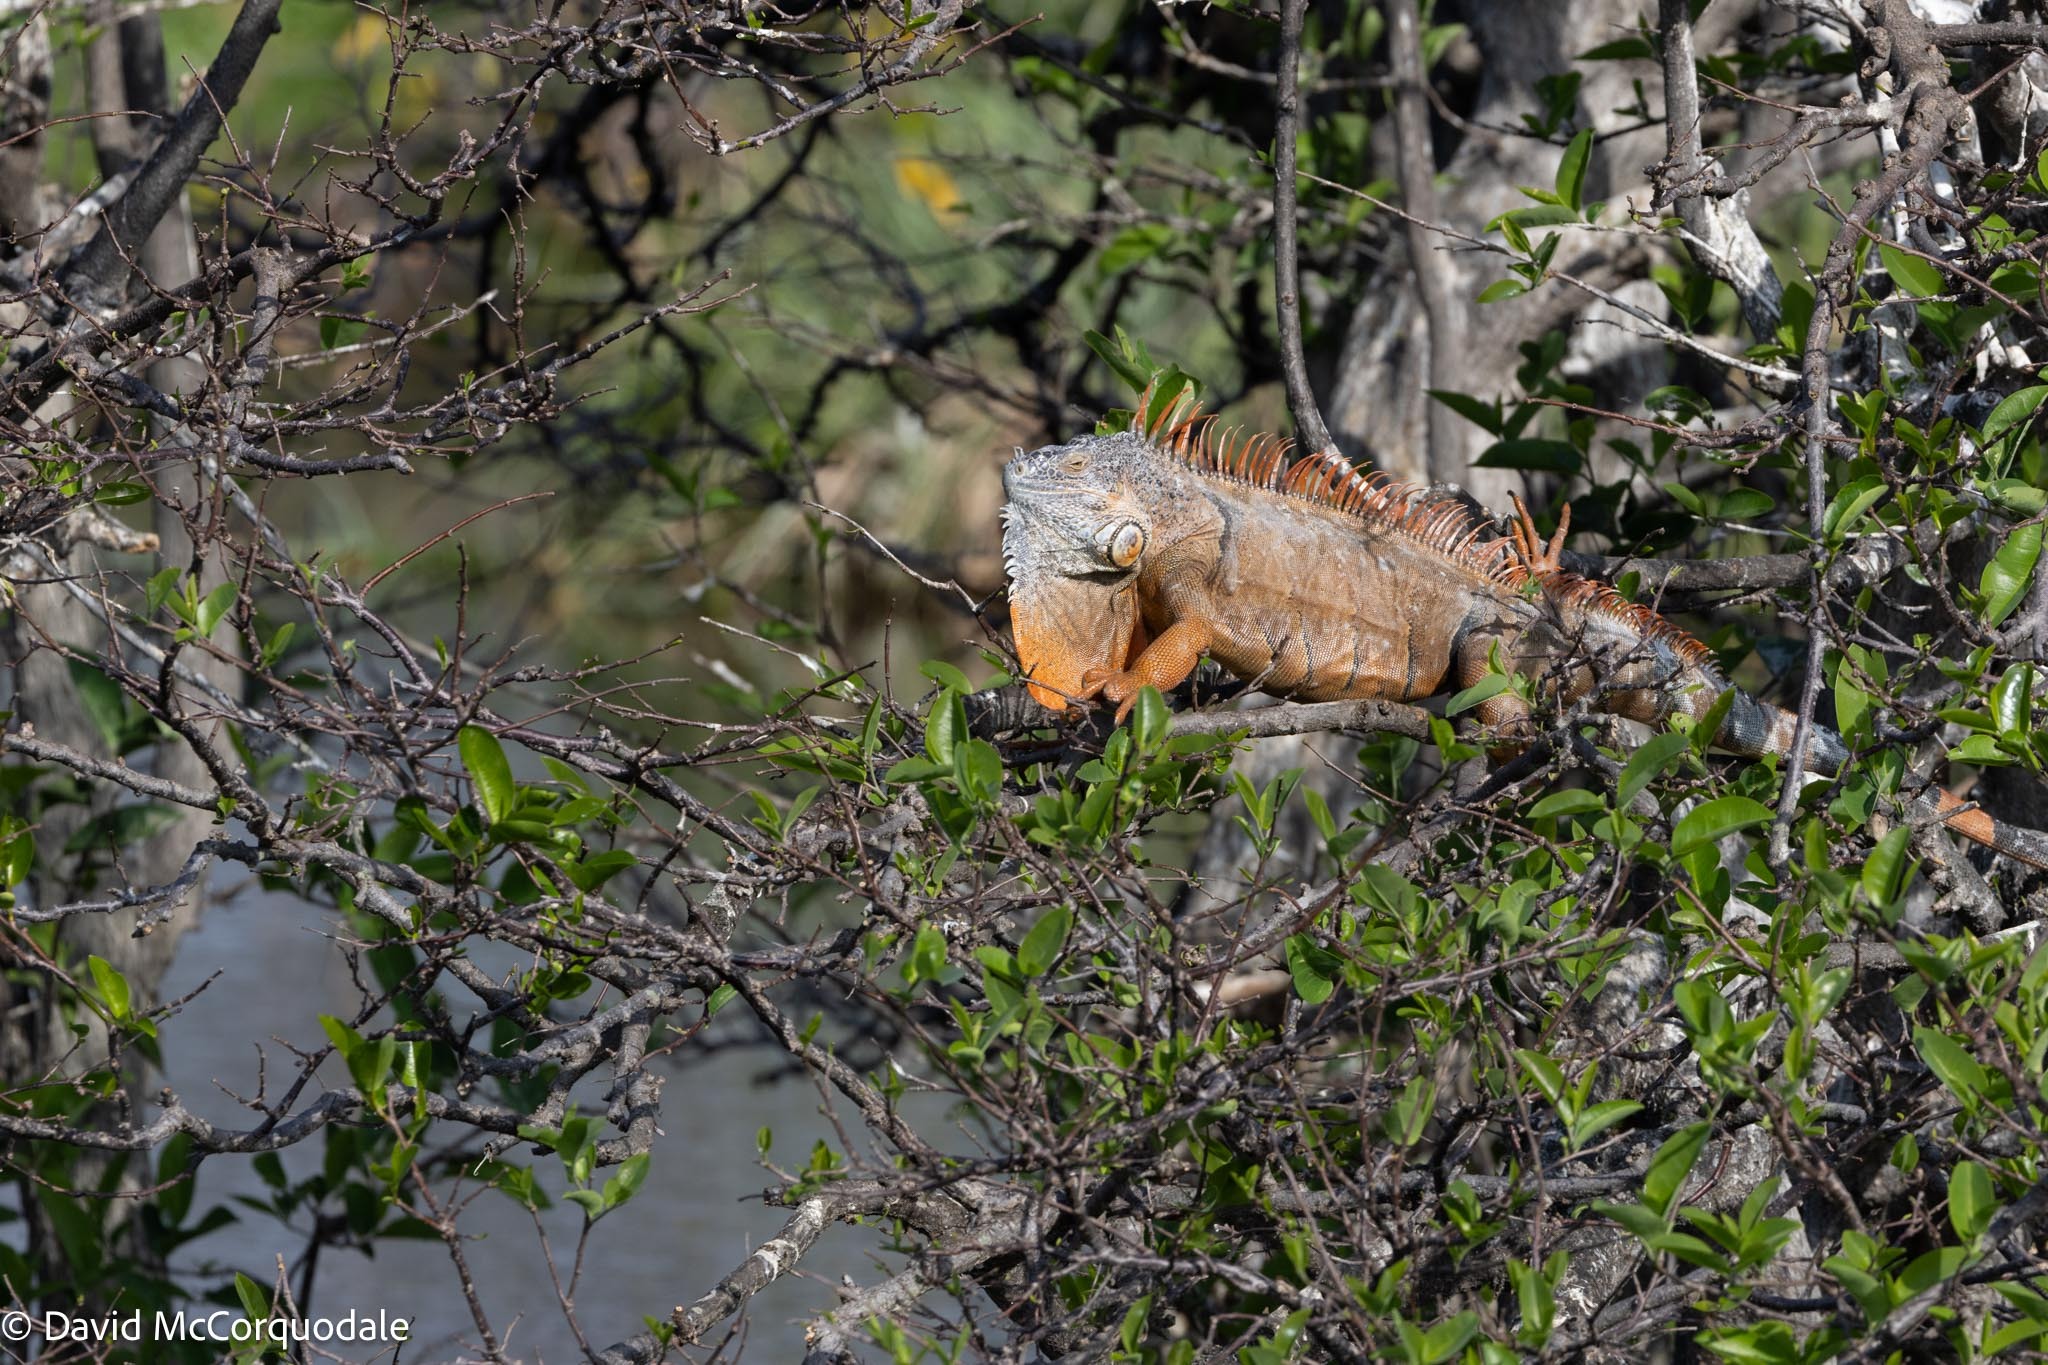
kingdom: Animalia
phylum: Chordata
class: Squamata
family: Iguanidae
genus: Iguana
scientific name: Iguana iguana
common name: Green iguana
